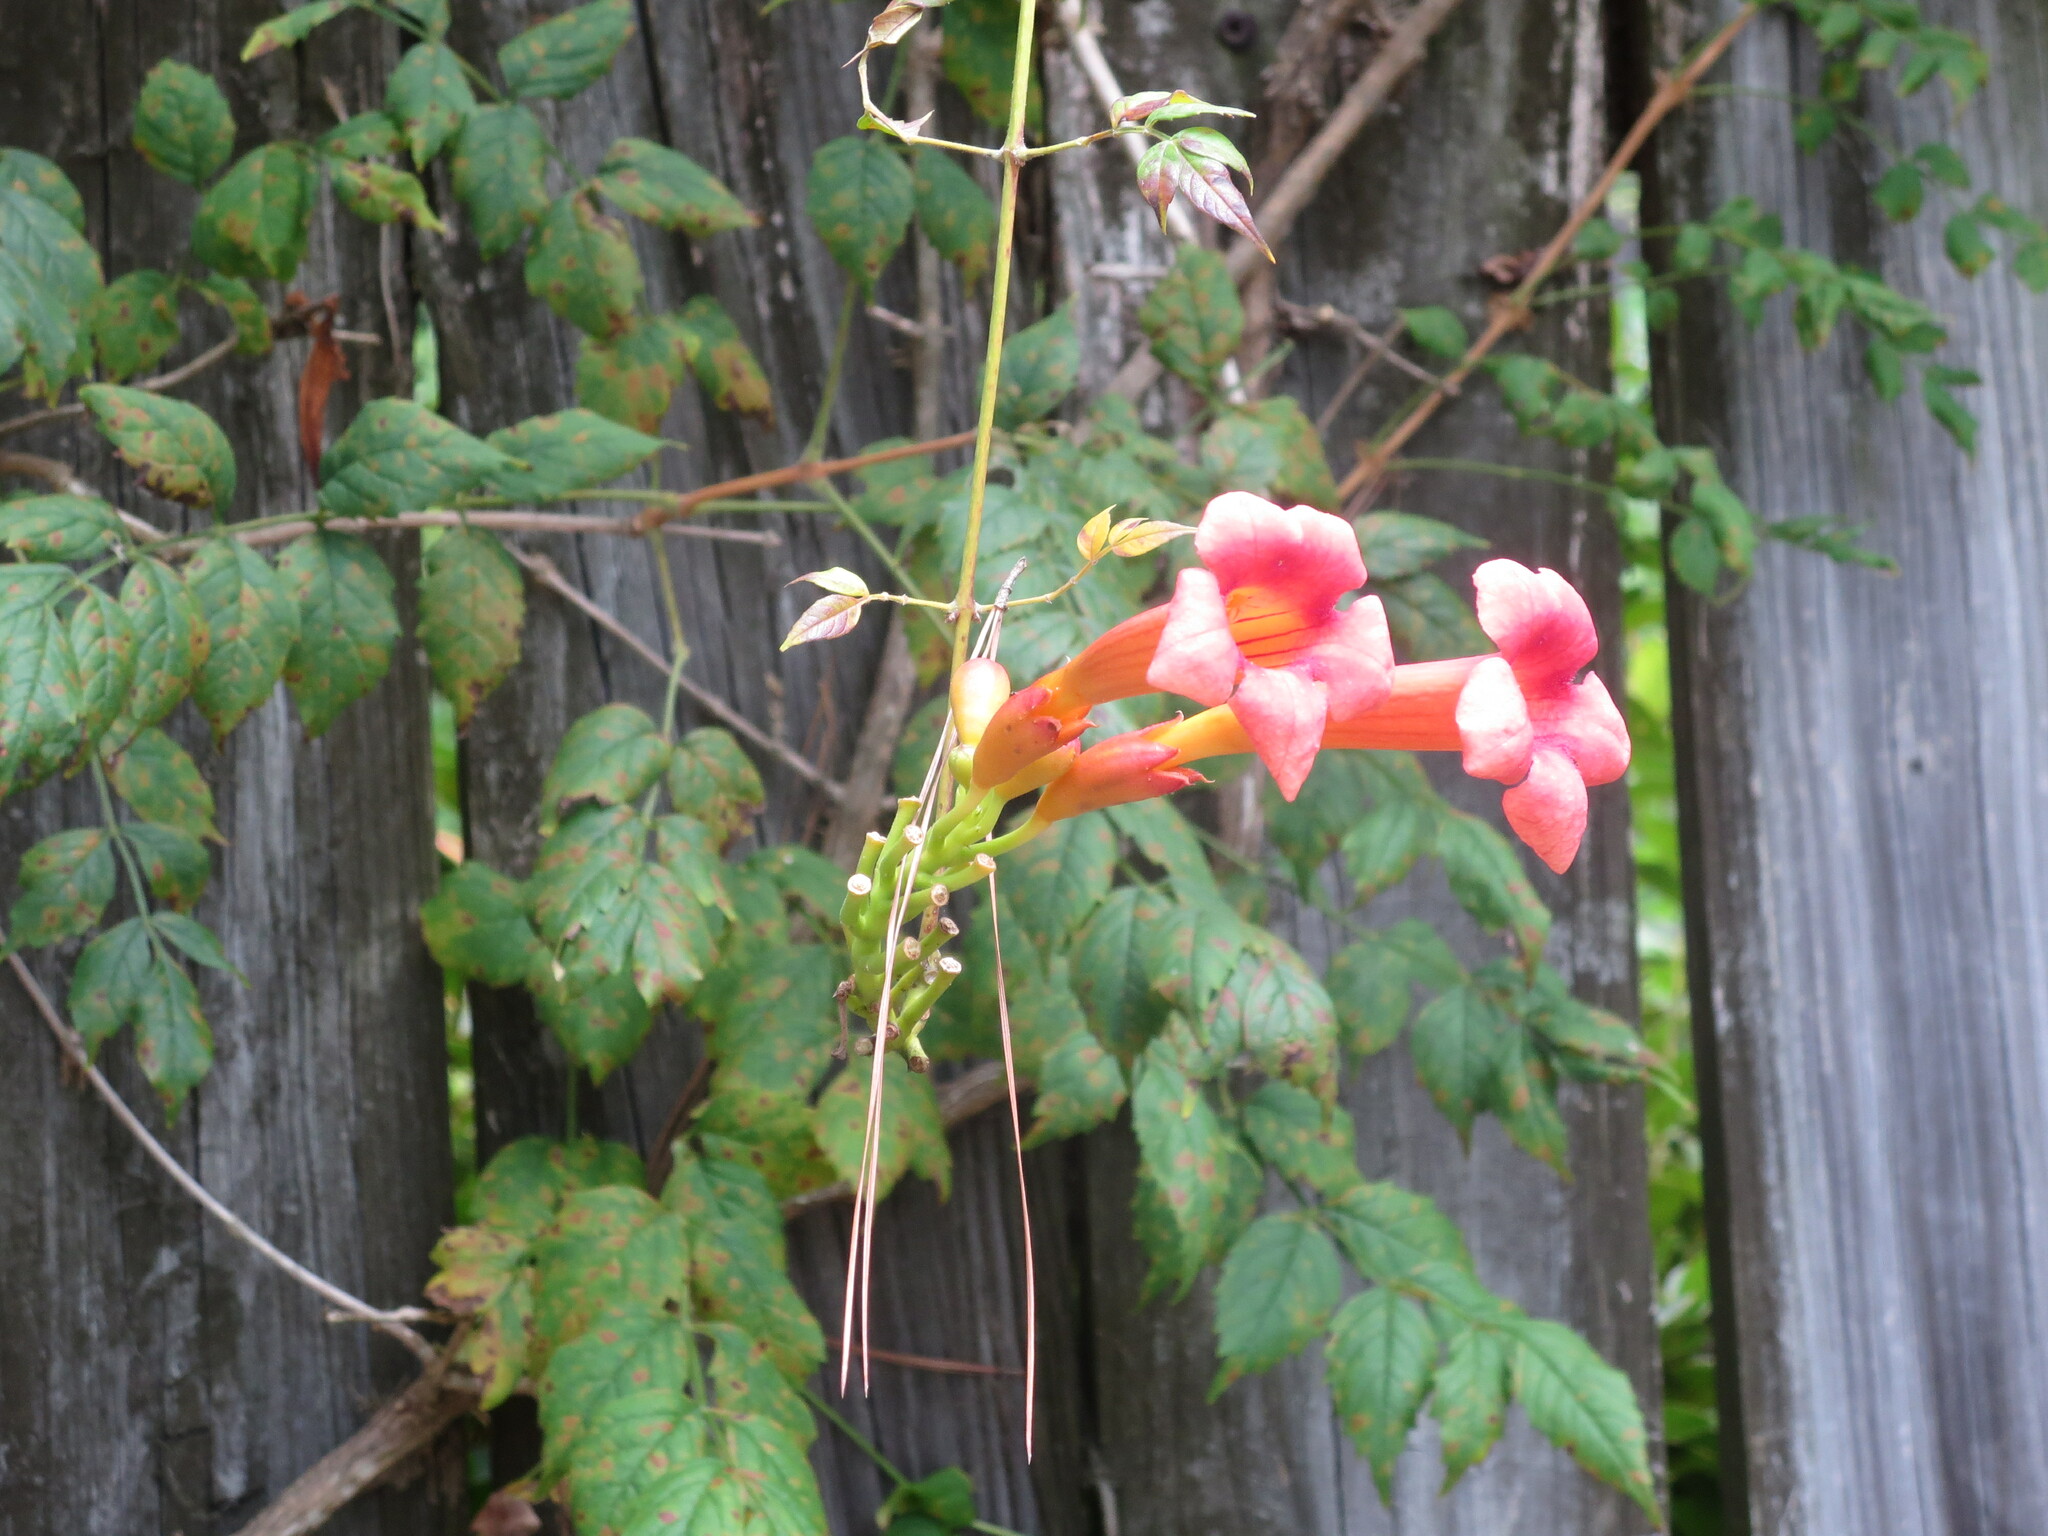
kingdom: Plantae
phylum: Tracheophyta
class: Magnoliopsida
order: Lamiales
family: Bignoniaceae
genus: Campsis
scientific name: Campsis radicans
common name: Trumpet-creeper
